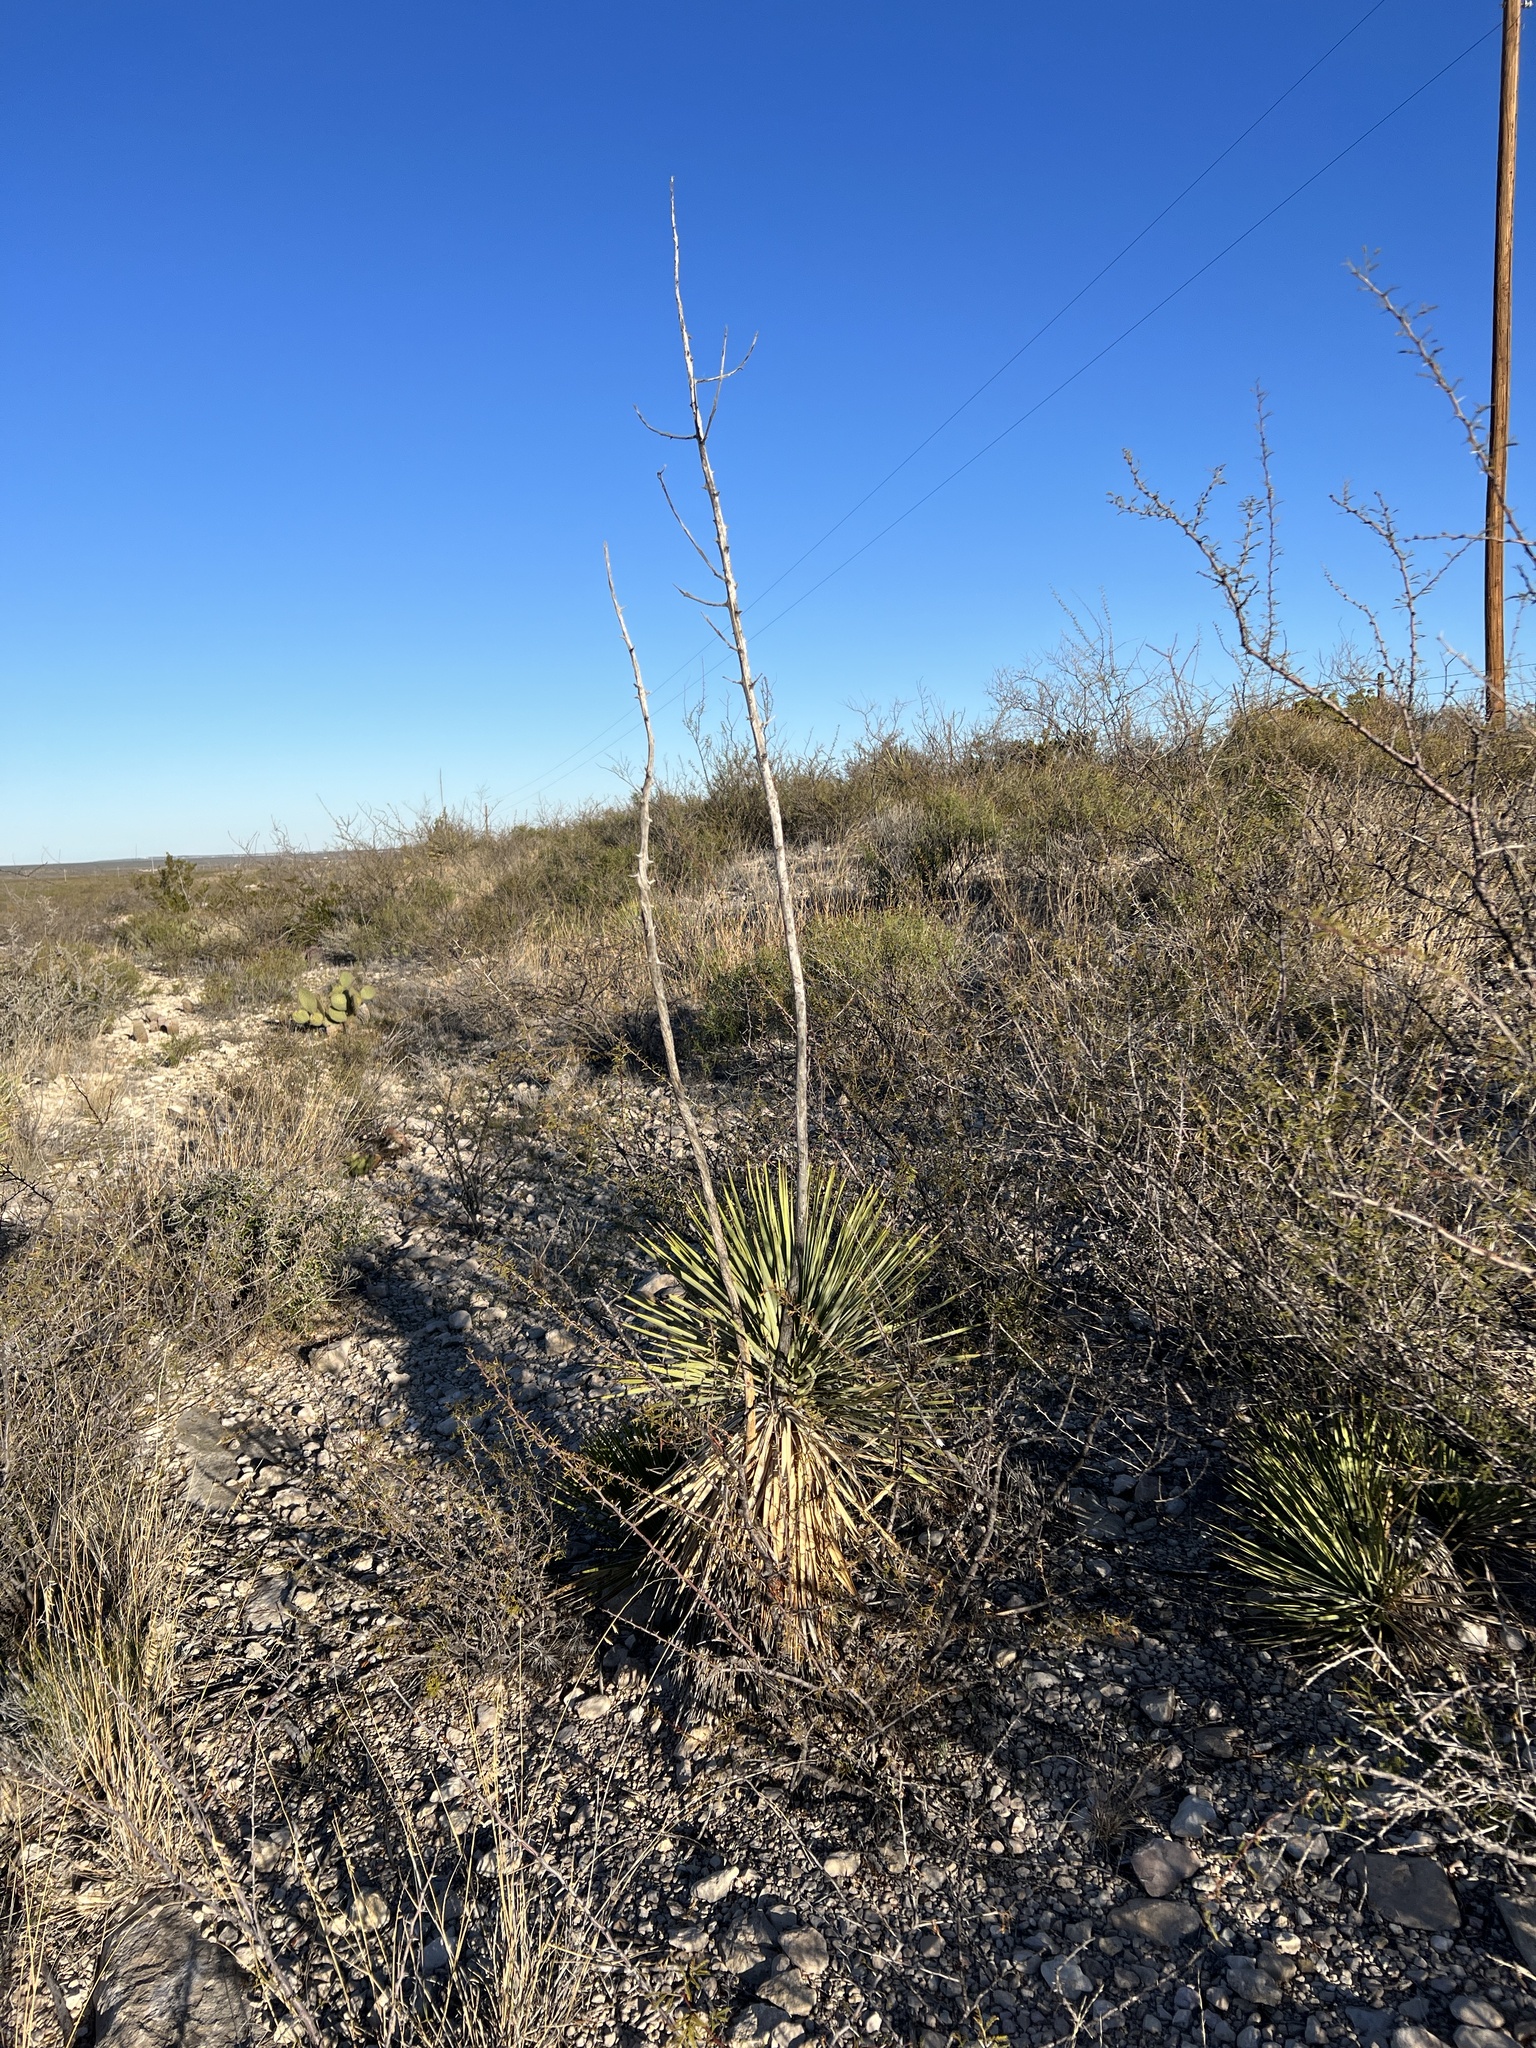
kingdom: Plantae
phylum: Tracheophyta
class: Liliopsida
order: Asparagales
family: Asparagaceae
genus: Yucca
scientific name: Yucca thompsoniana
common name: Trans-pecos yucca
